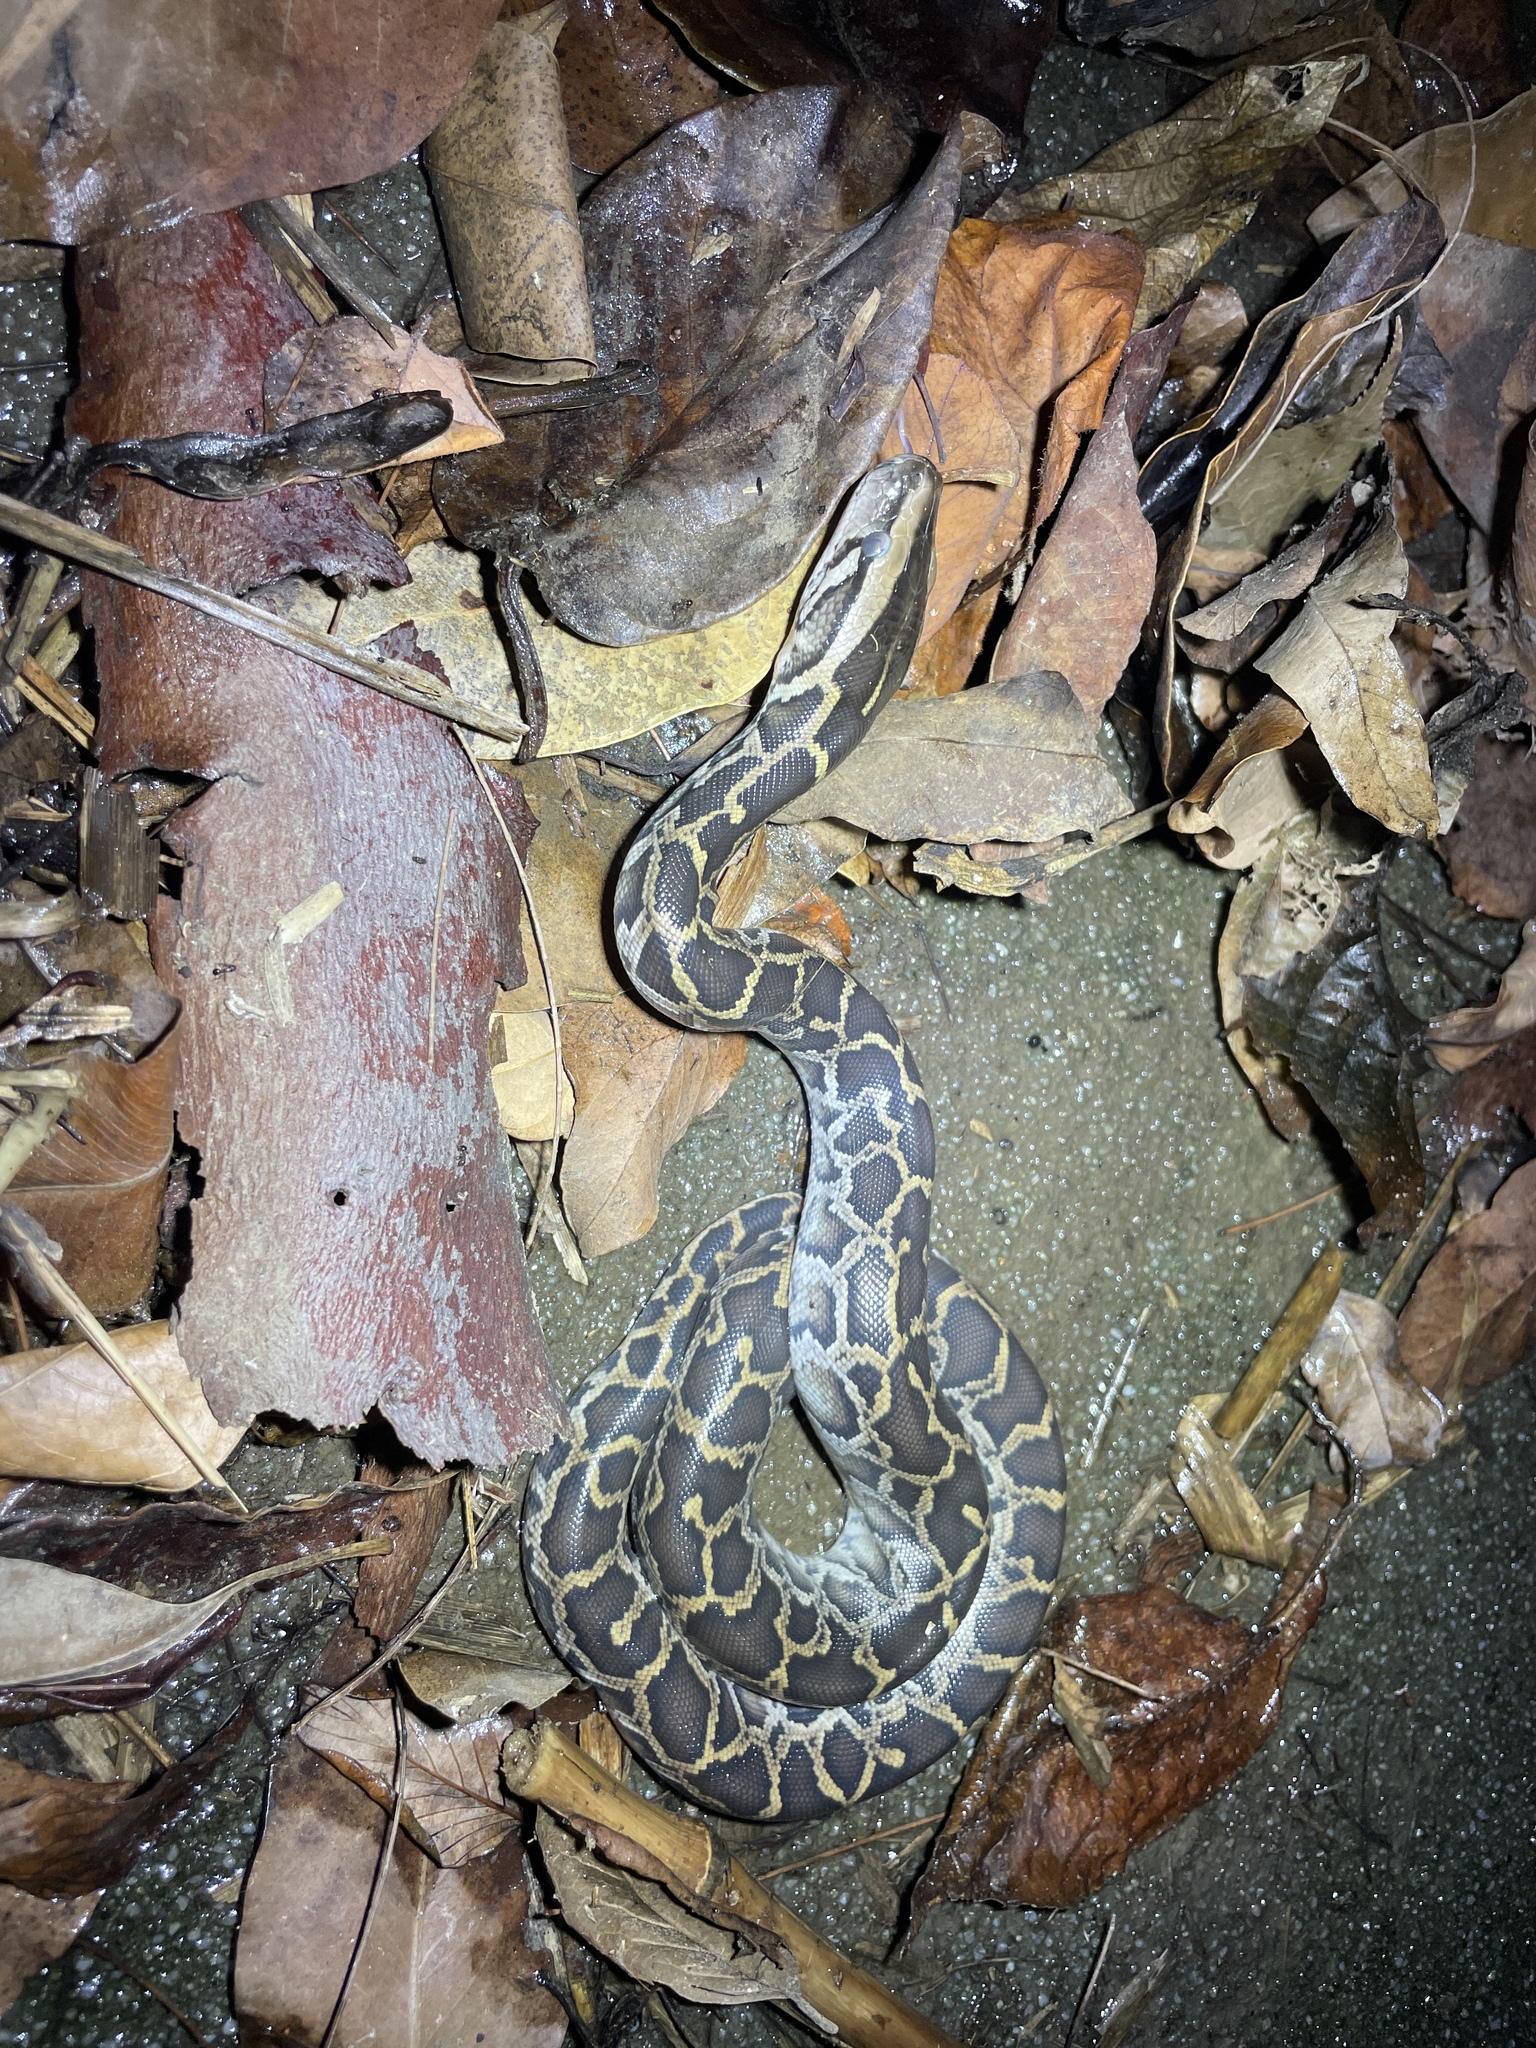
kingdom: Animalia
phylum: Chordata
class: Squamata
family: Pythonidae
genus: Python
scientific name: Python bivittatus
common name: Burmese python
